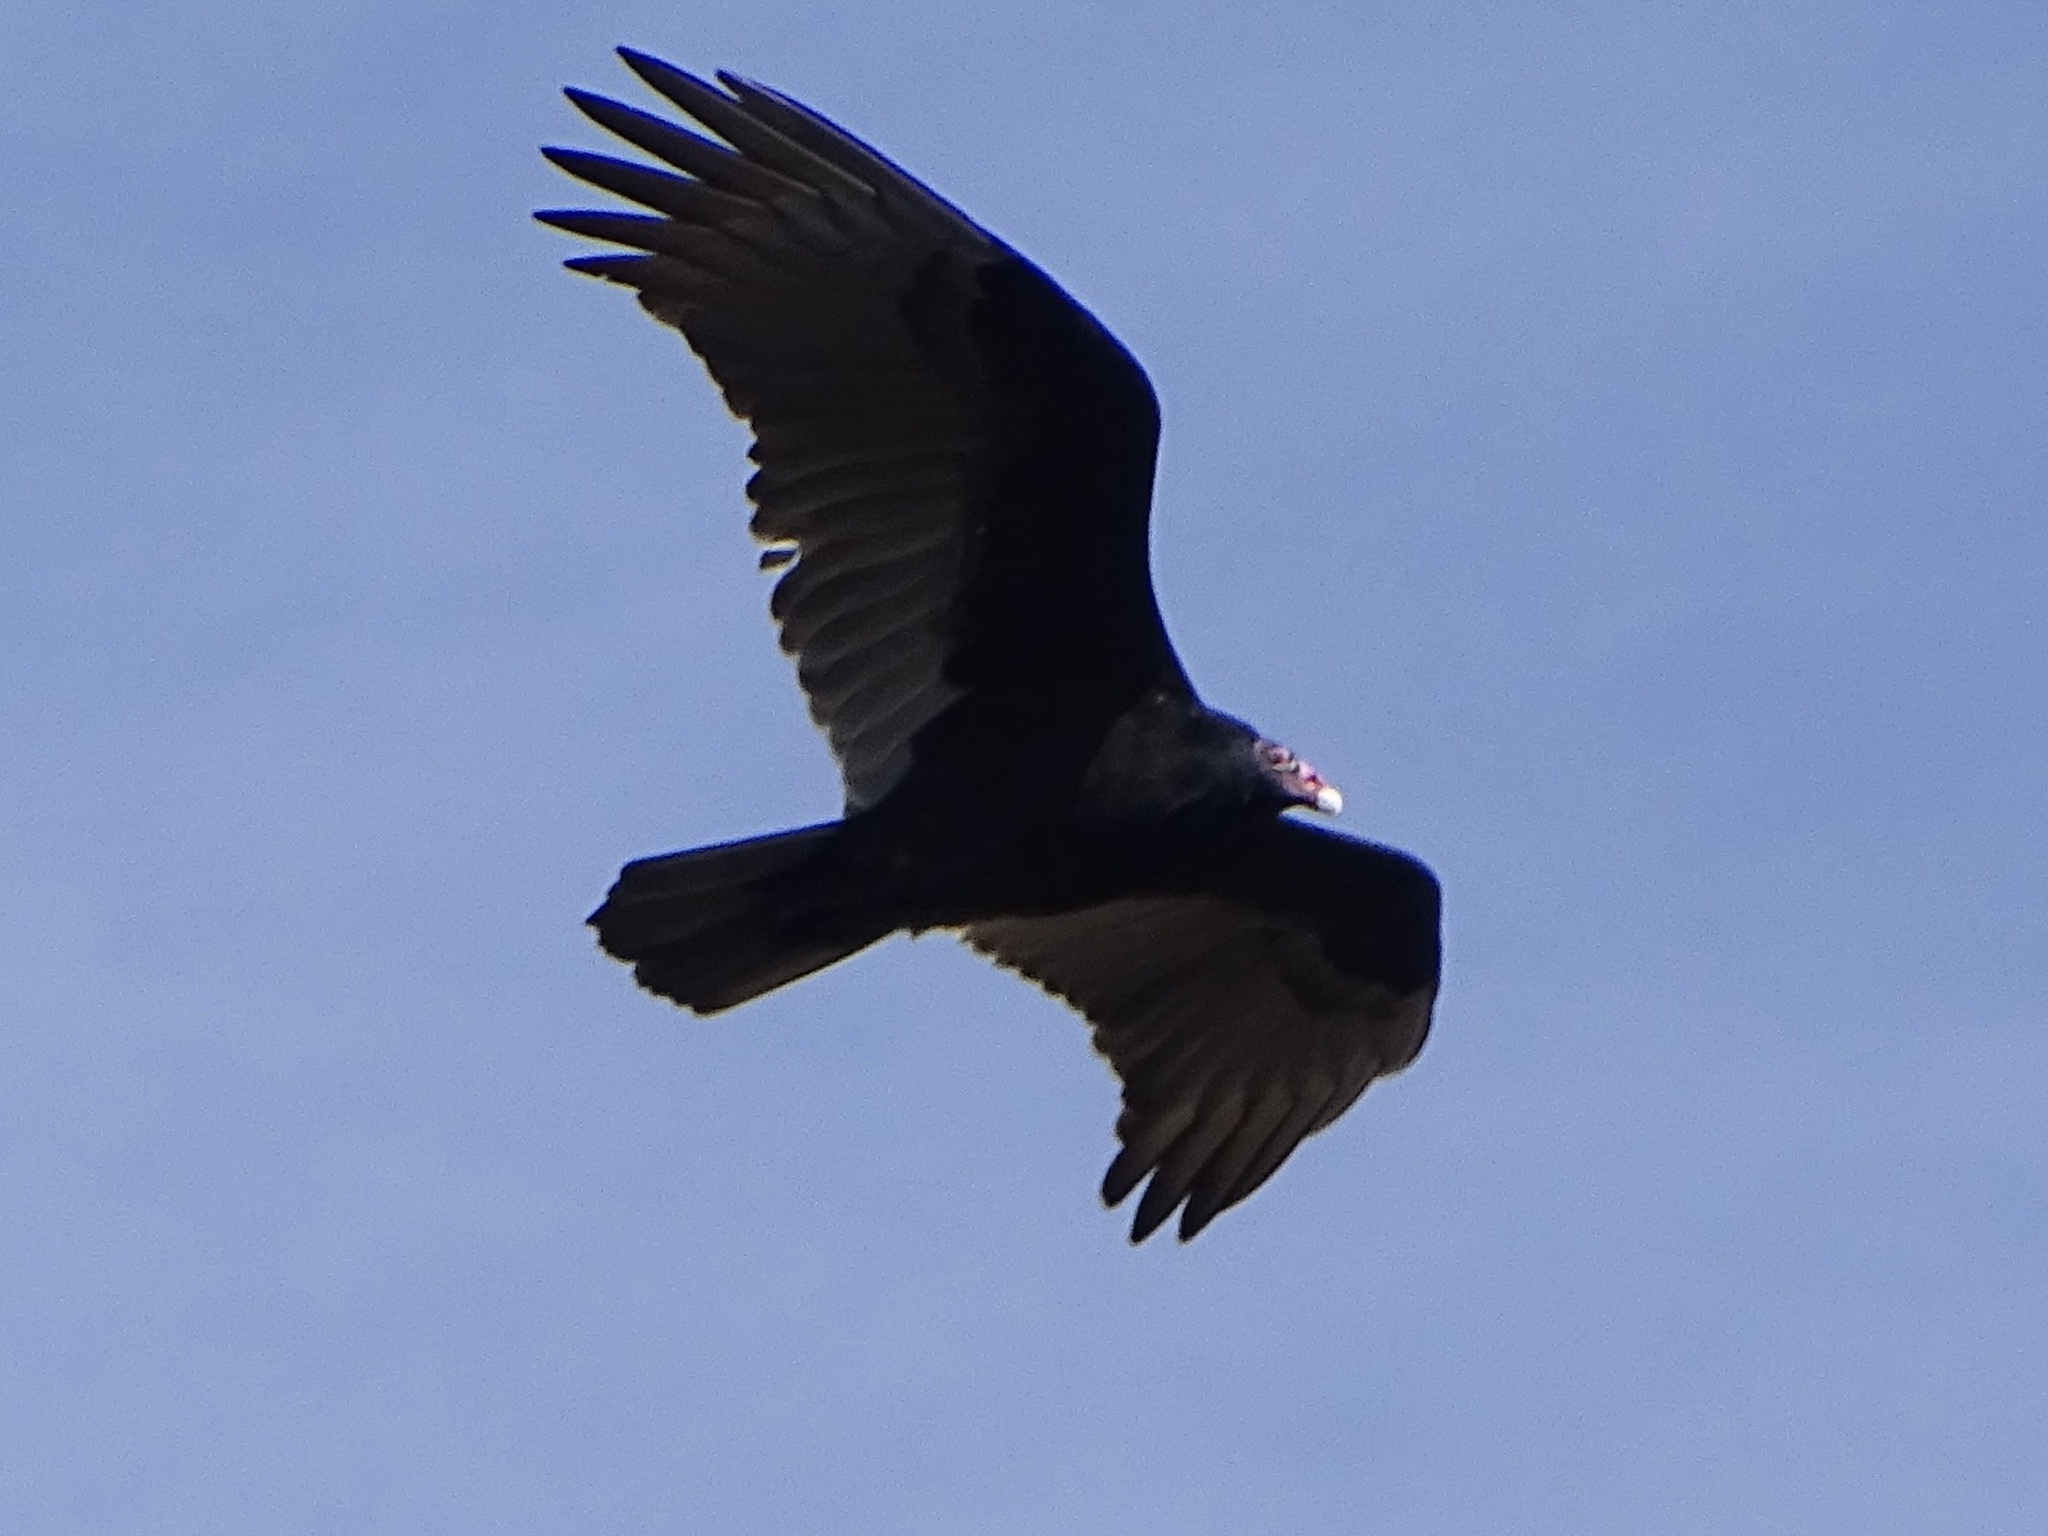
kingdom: Animalia
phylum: Chordata
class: Aves
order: Accipitriformes
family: Cathartidae
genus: Cathartes
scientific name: Cathartes aura
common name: Turkey vulture
